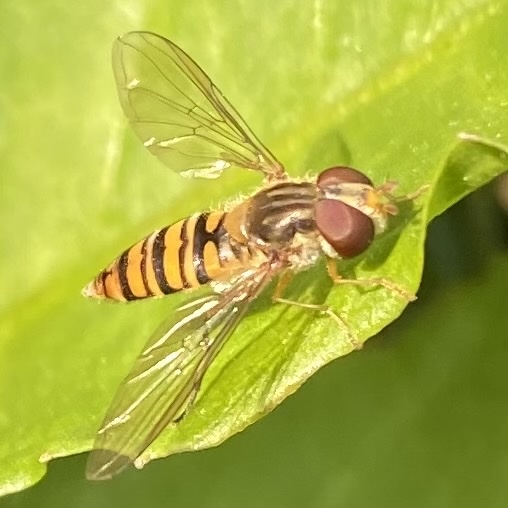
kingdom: Animalia
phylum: Arthropoda
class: Insecta
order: Diptera
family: Syrphidae
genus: Episyrphus
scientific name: Episyrphus balteatus
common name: Marmalade hoverfly
